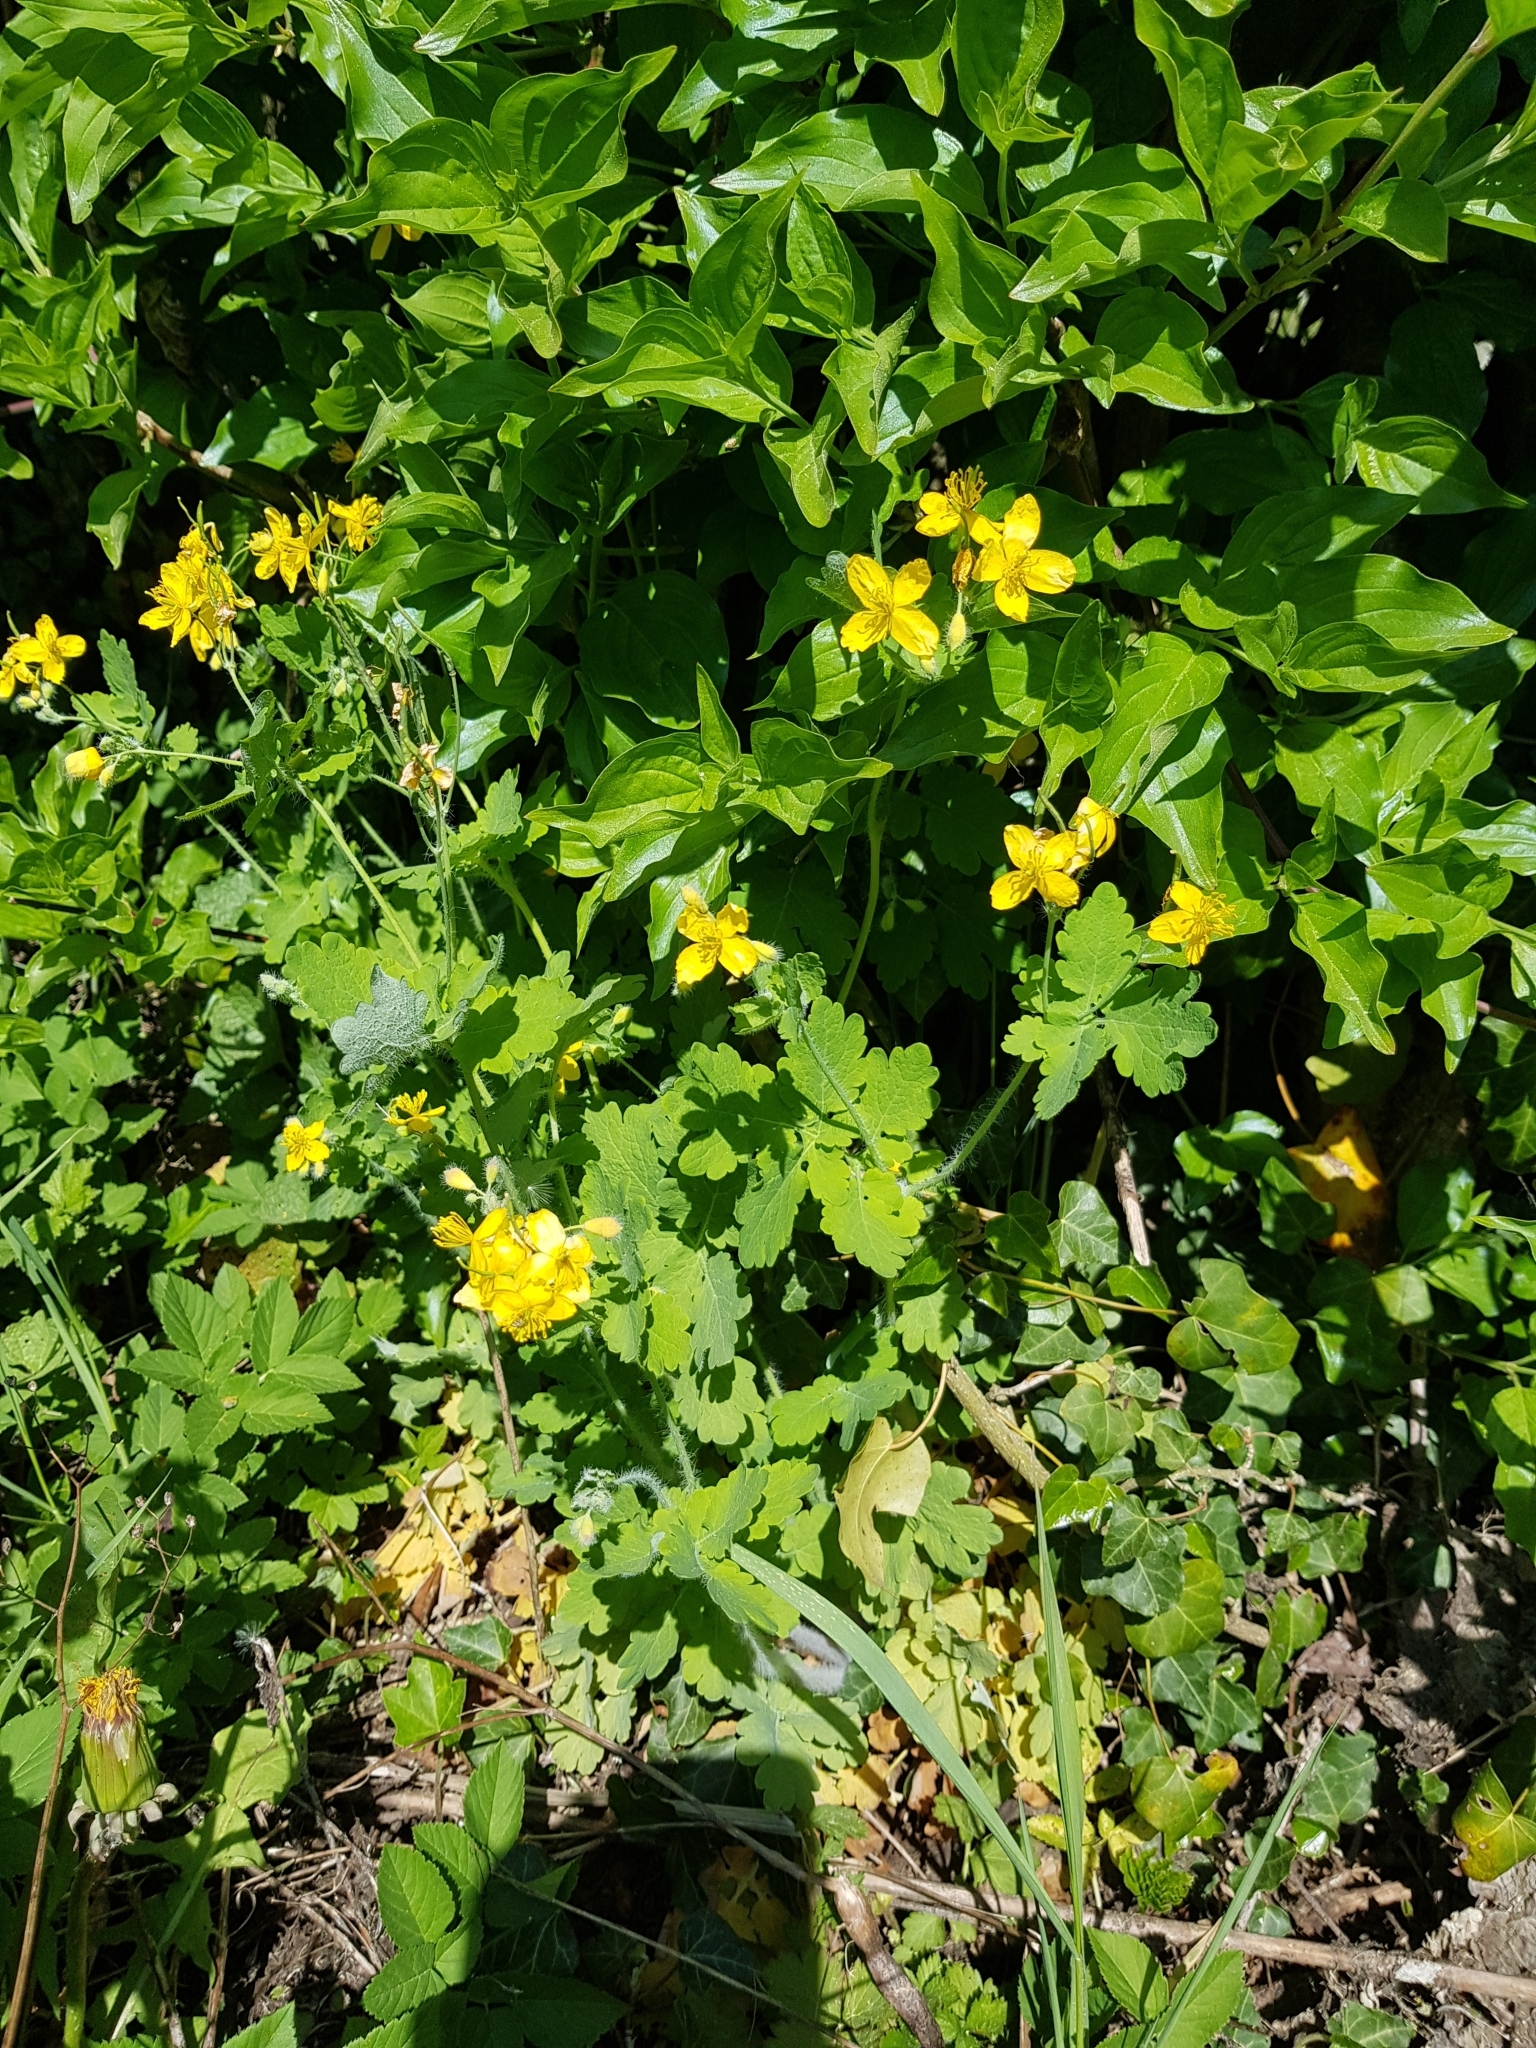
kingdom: Plantae
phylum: Tracheophyta
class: Magnoliopsida
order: Ranunculales
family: Papaveraceae
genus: Chelidonium
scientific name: Chelidonium majus
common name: Greater celandine
